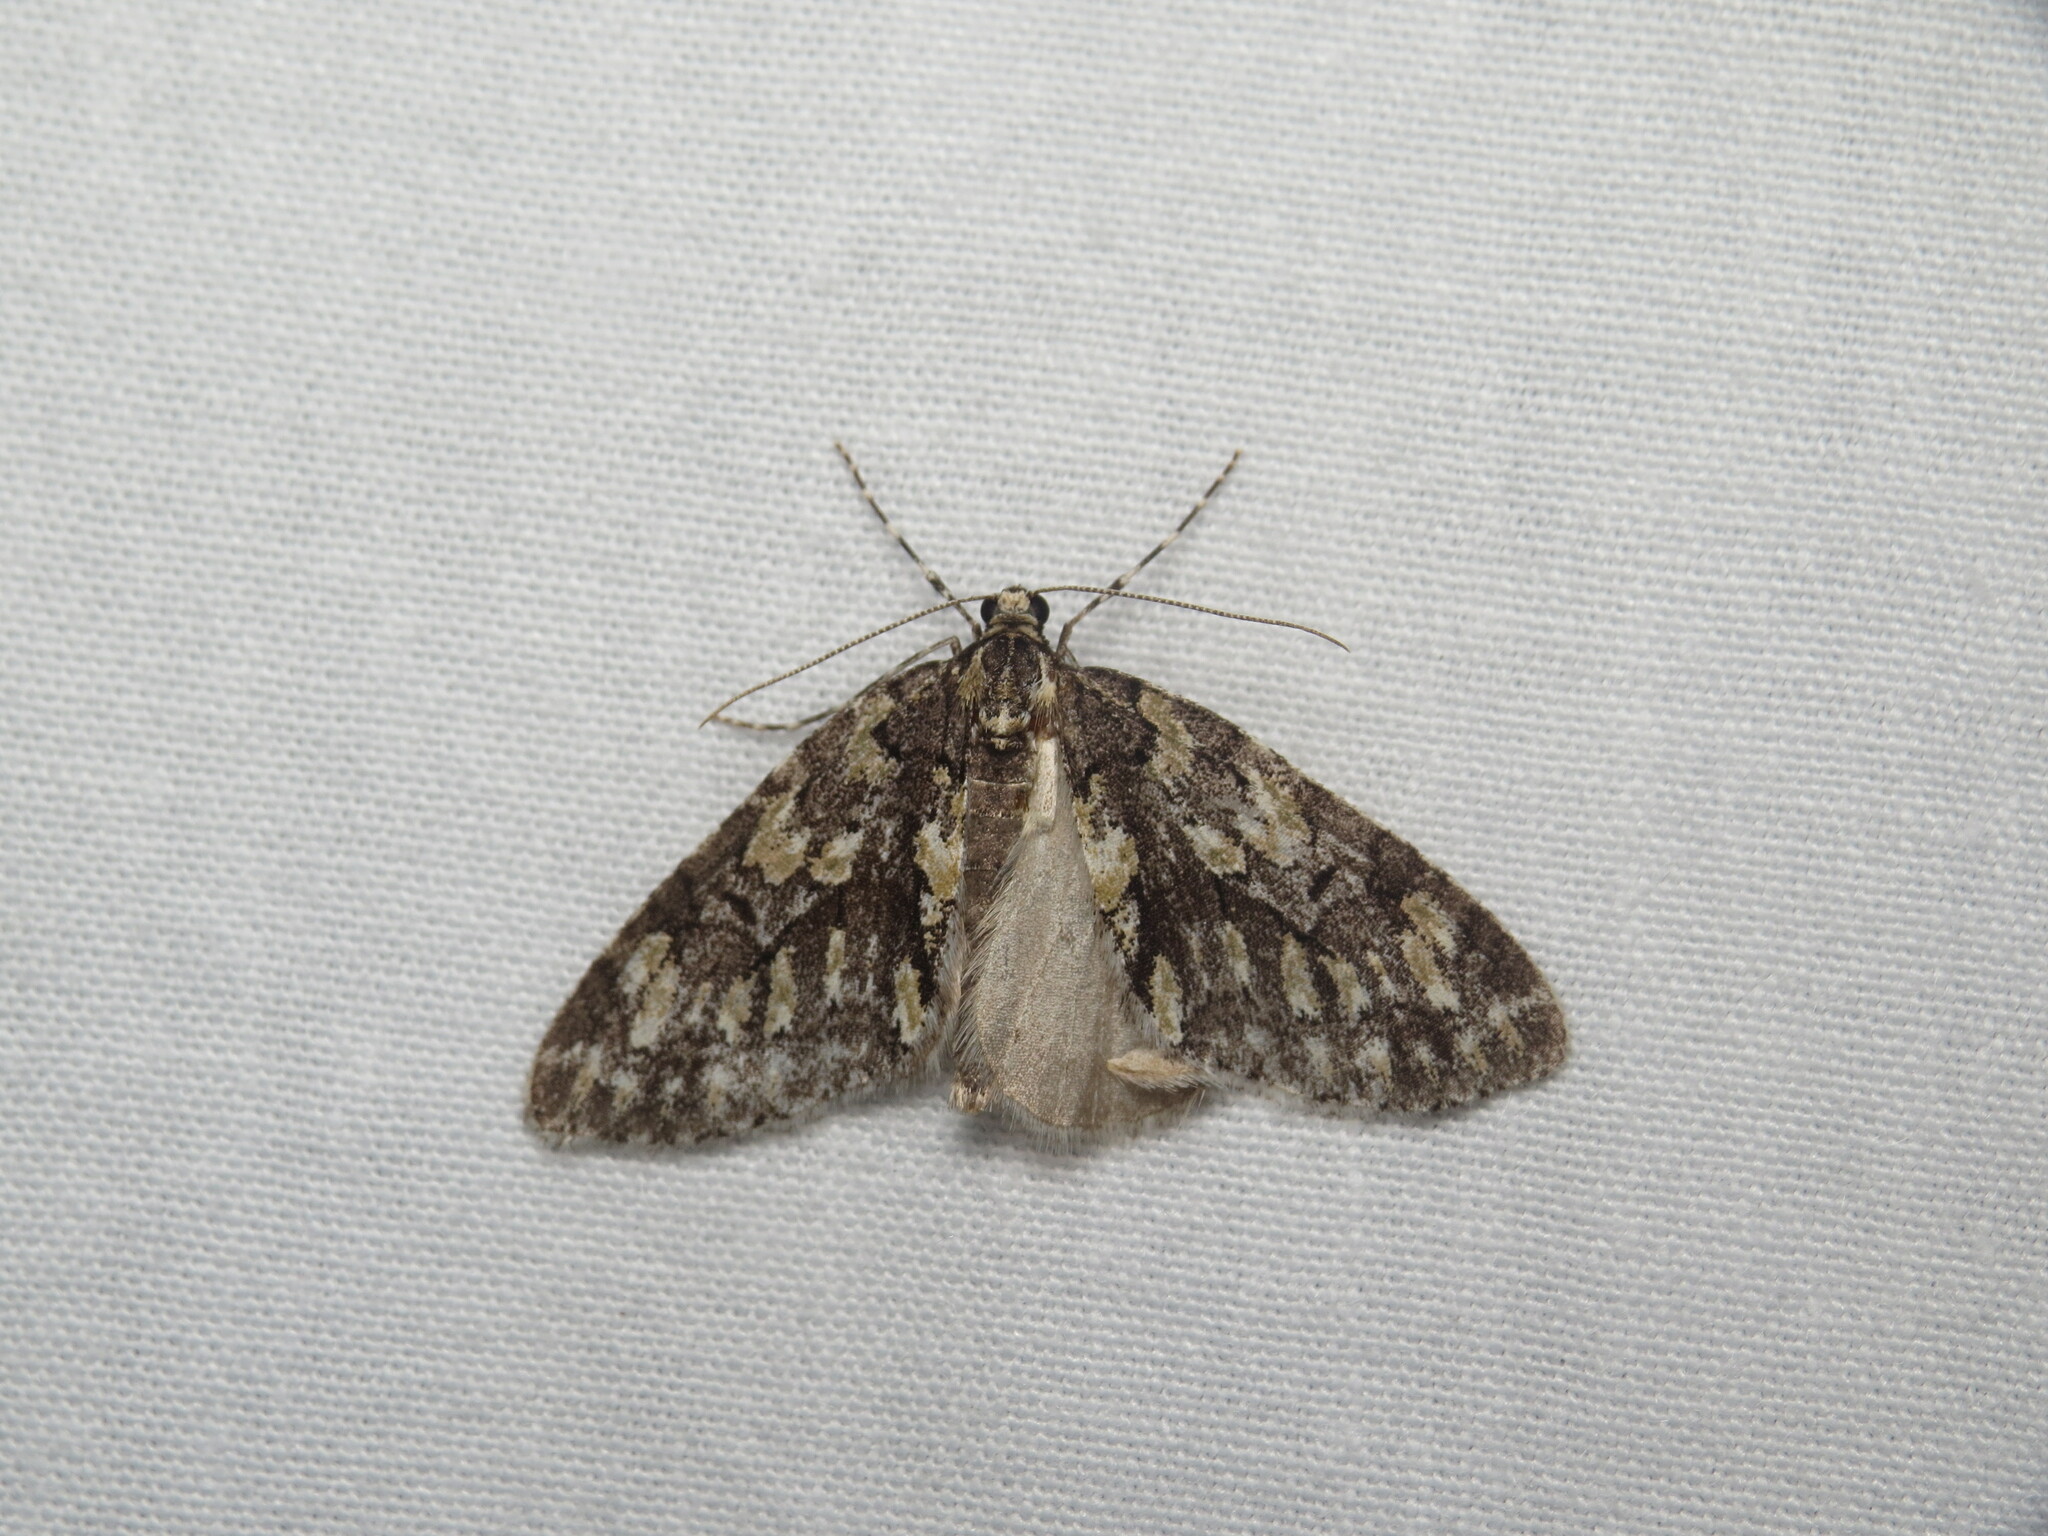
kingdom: Animalia
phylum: Arthropoda
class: Insecta
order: Lepidoptera
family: Geometridae
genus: Cladara
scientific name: Cladara limitaria
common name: Mottled gray carpet
